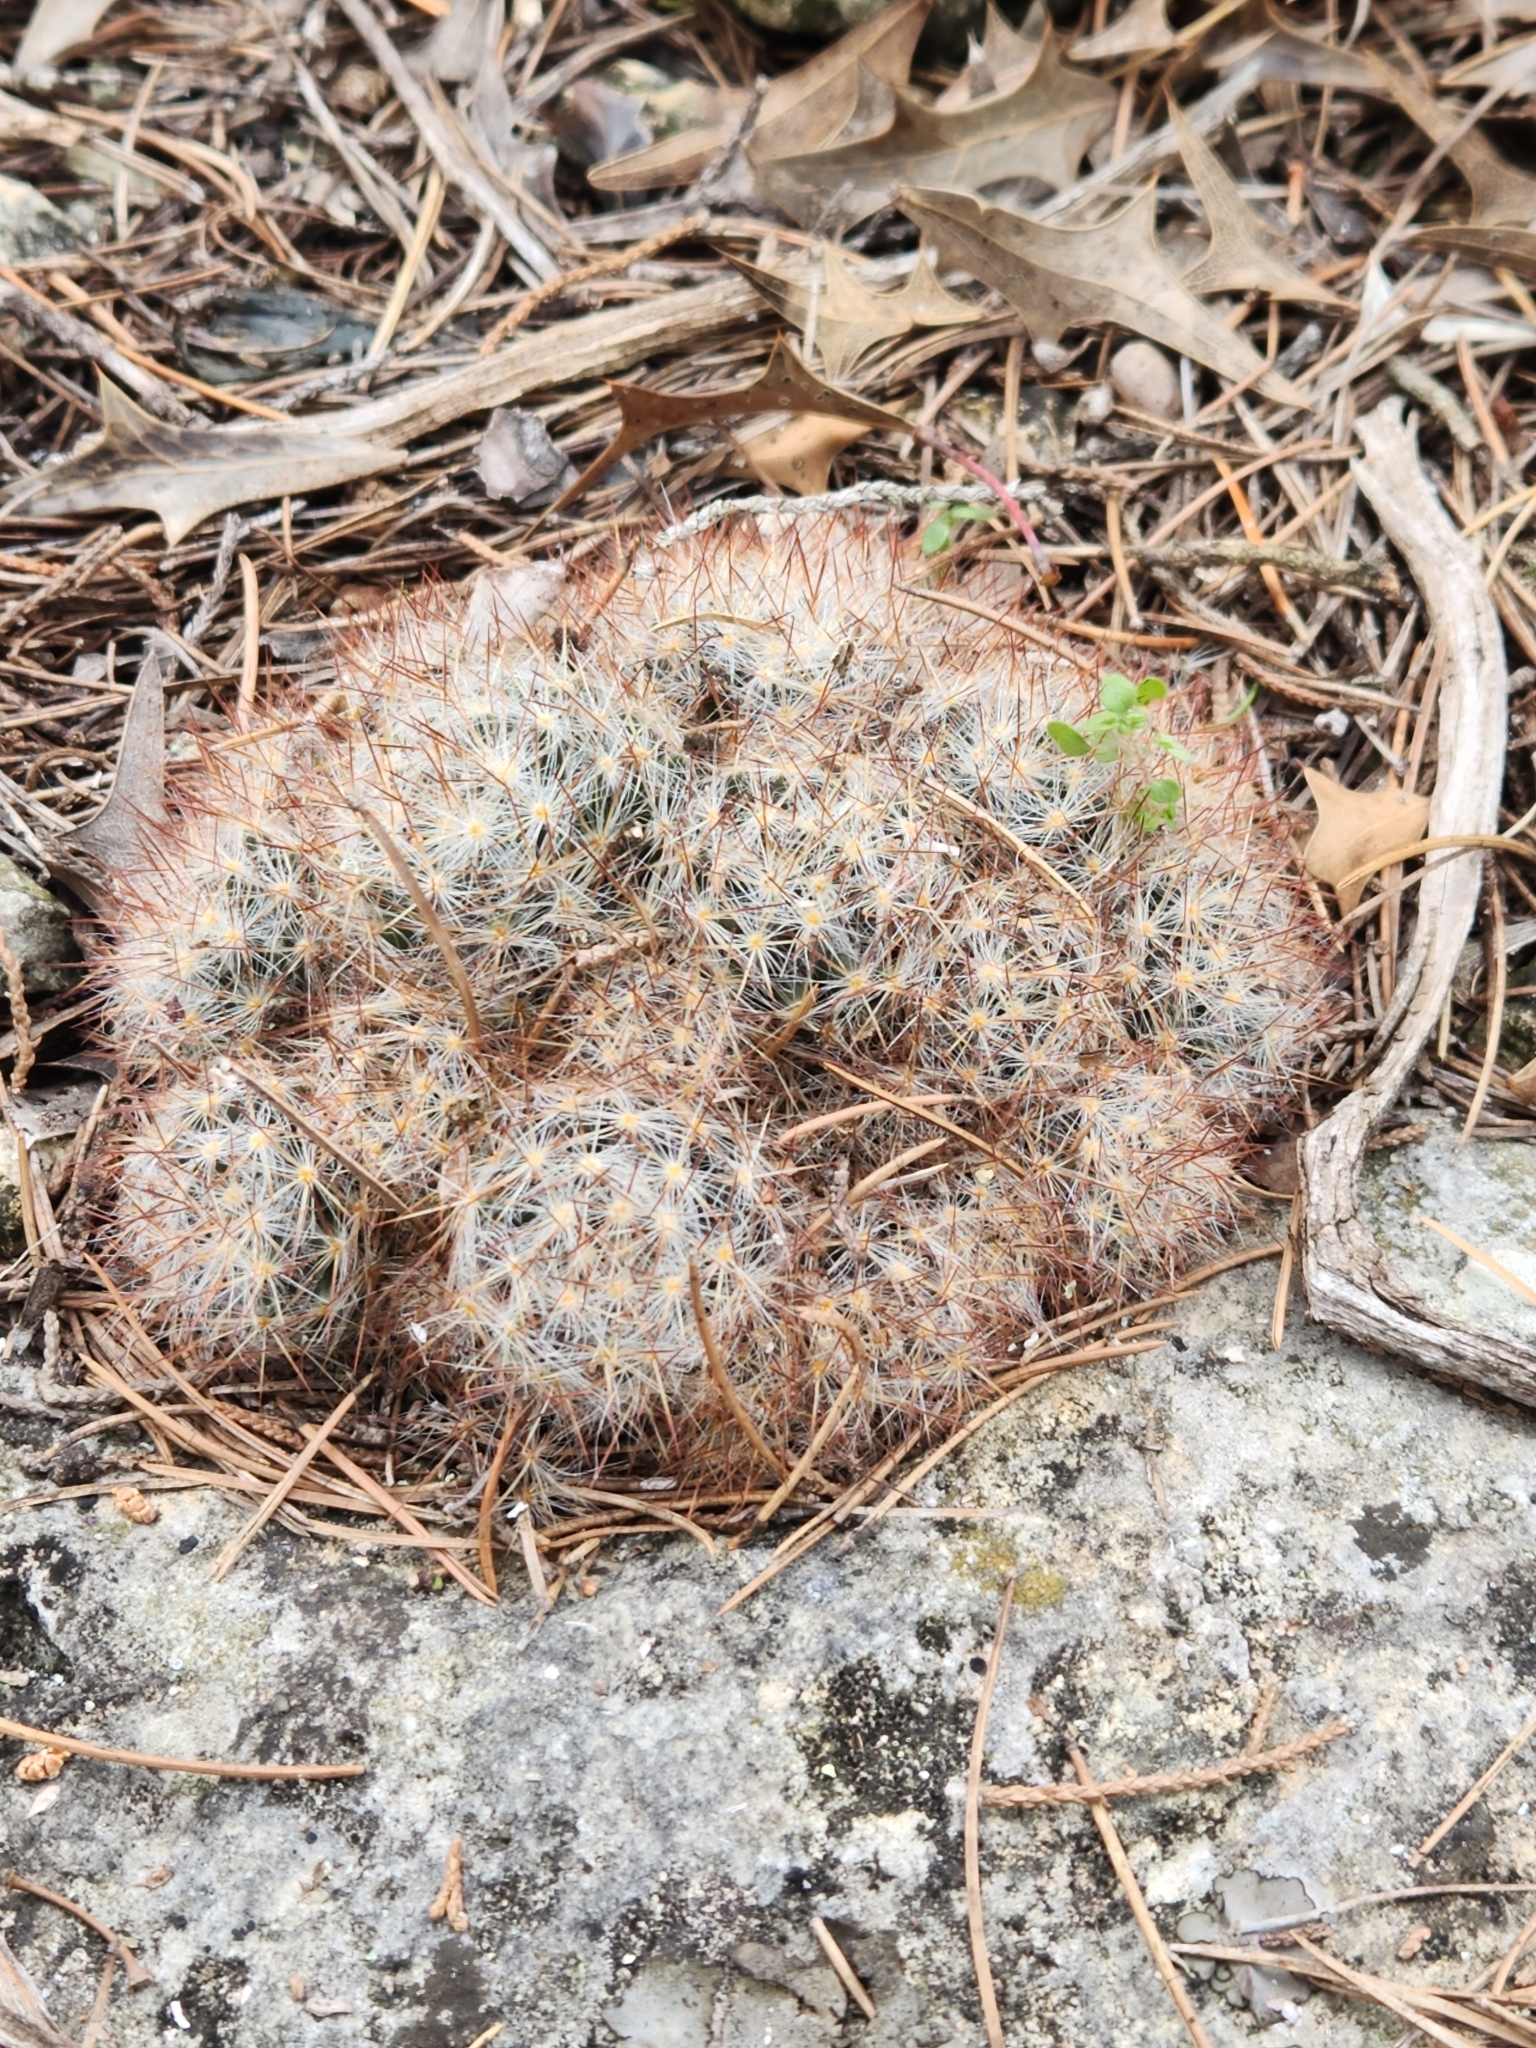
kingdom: Plantae
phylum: Tracheophyta
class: Magnoliopsida
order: Caryophyllales
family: Cactaceae
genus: Mammillaria
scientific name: Mammillaria prolifera
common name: Texas nipple cactus
